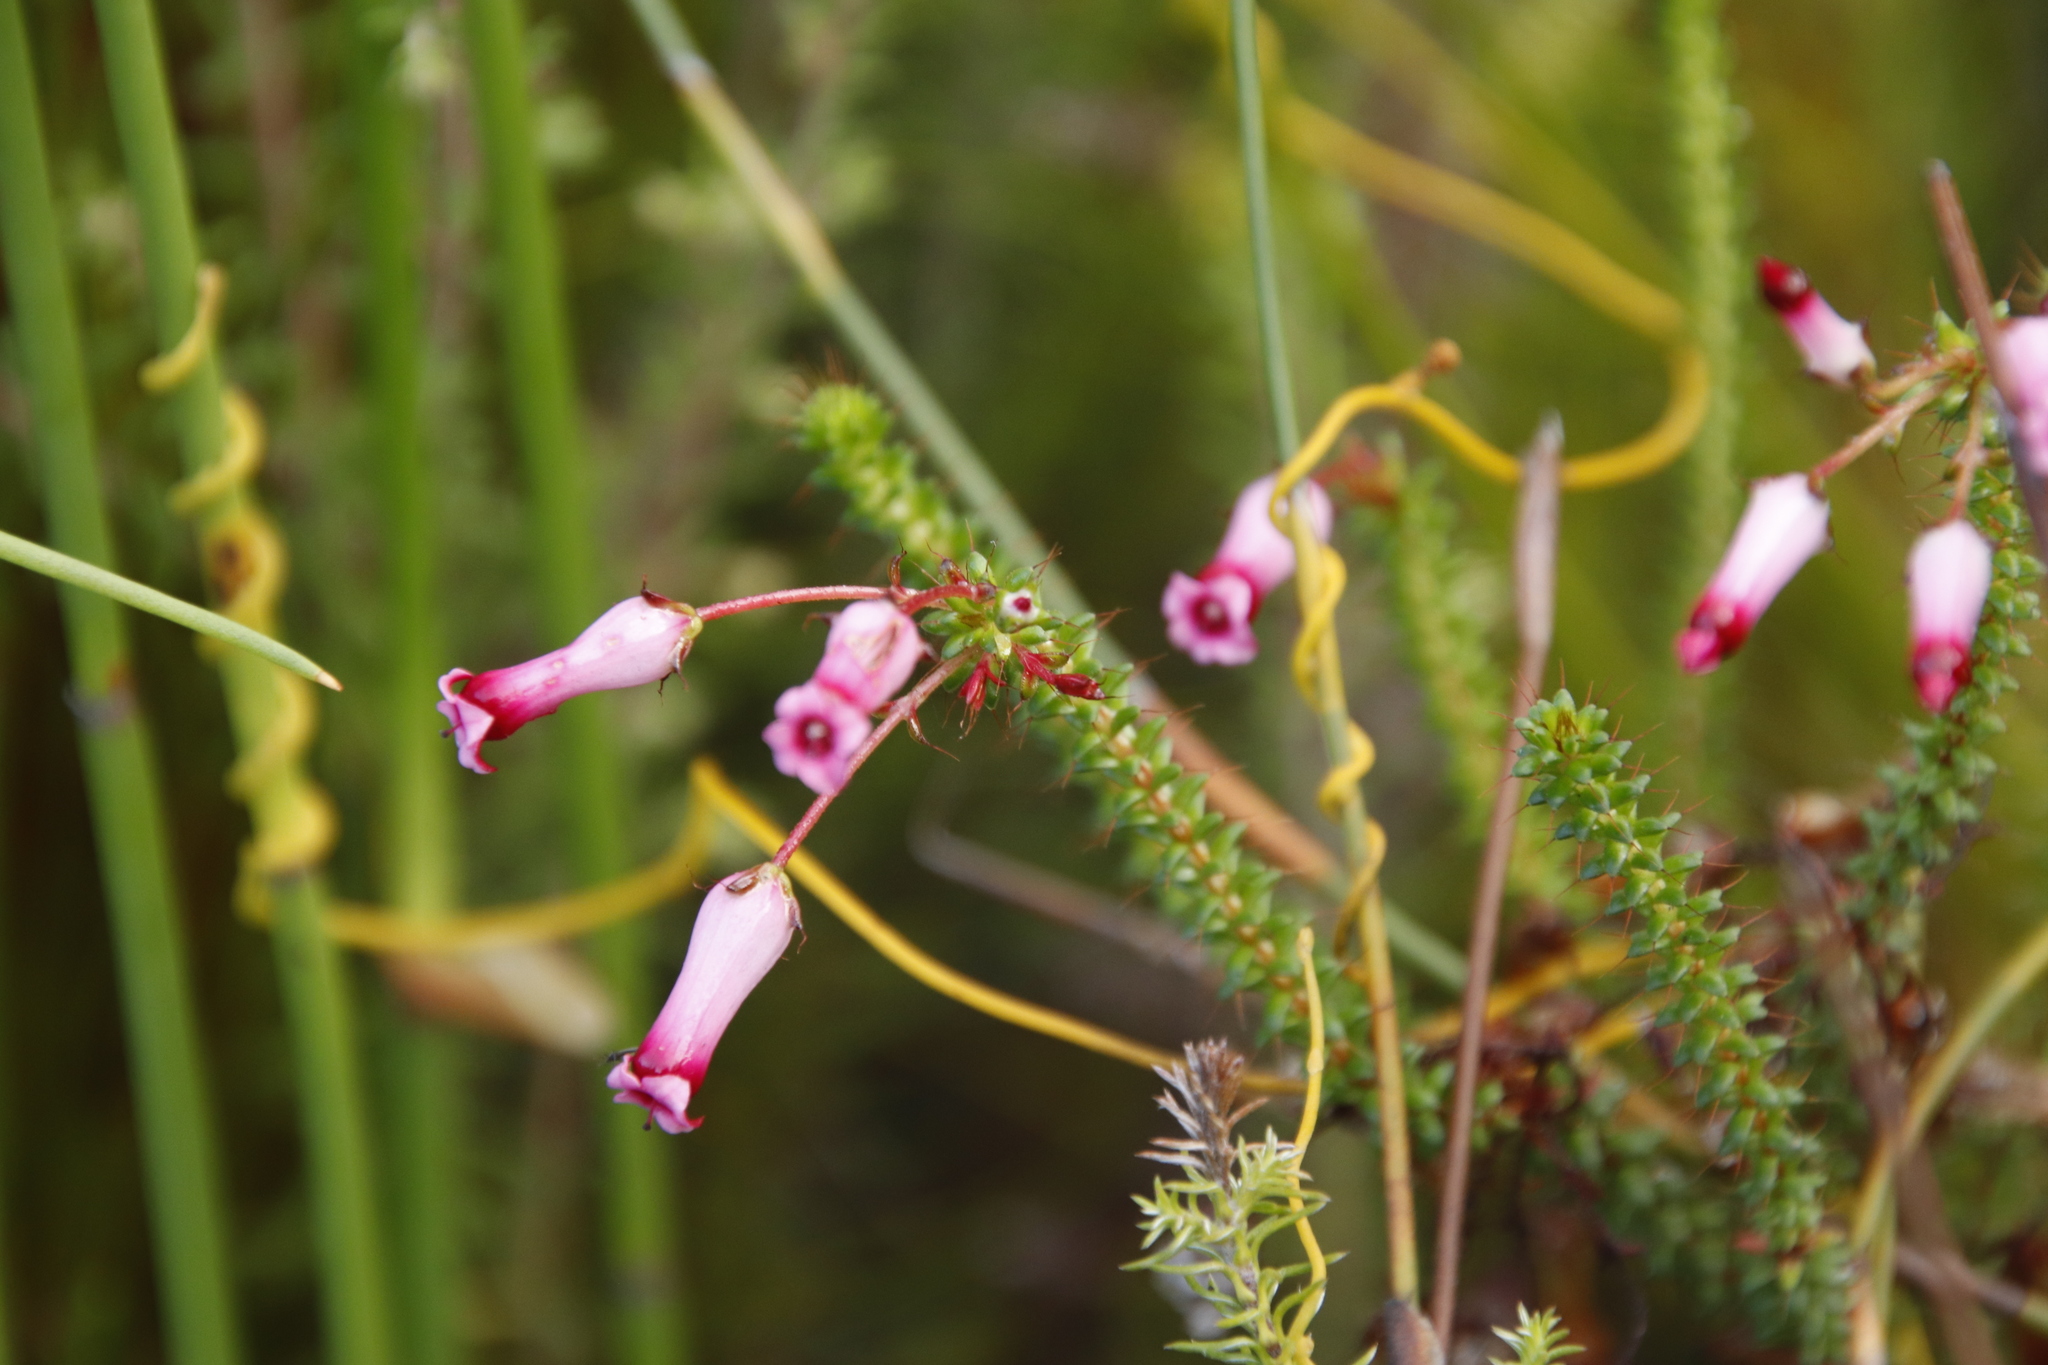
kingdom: Plantae
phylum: Tracheophyta
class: Magnoliopsida
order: Ericales
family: Ericaceae
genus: Erica
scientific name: Erica retorta
